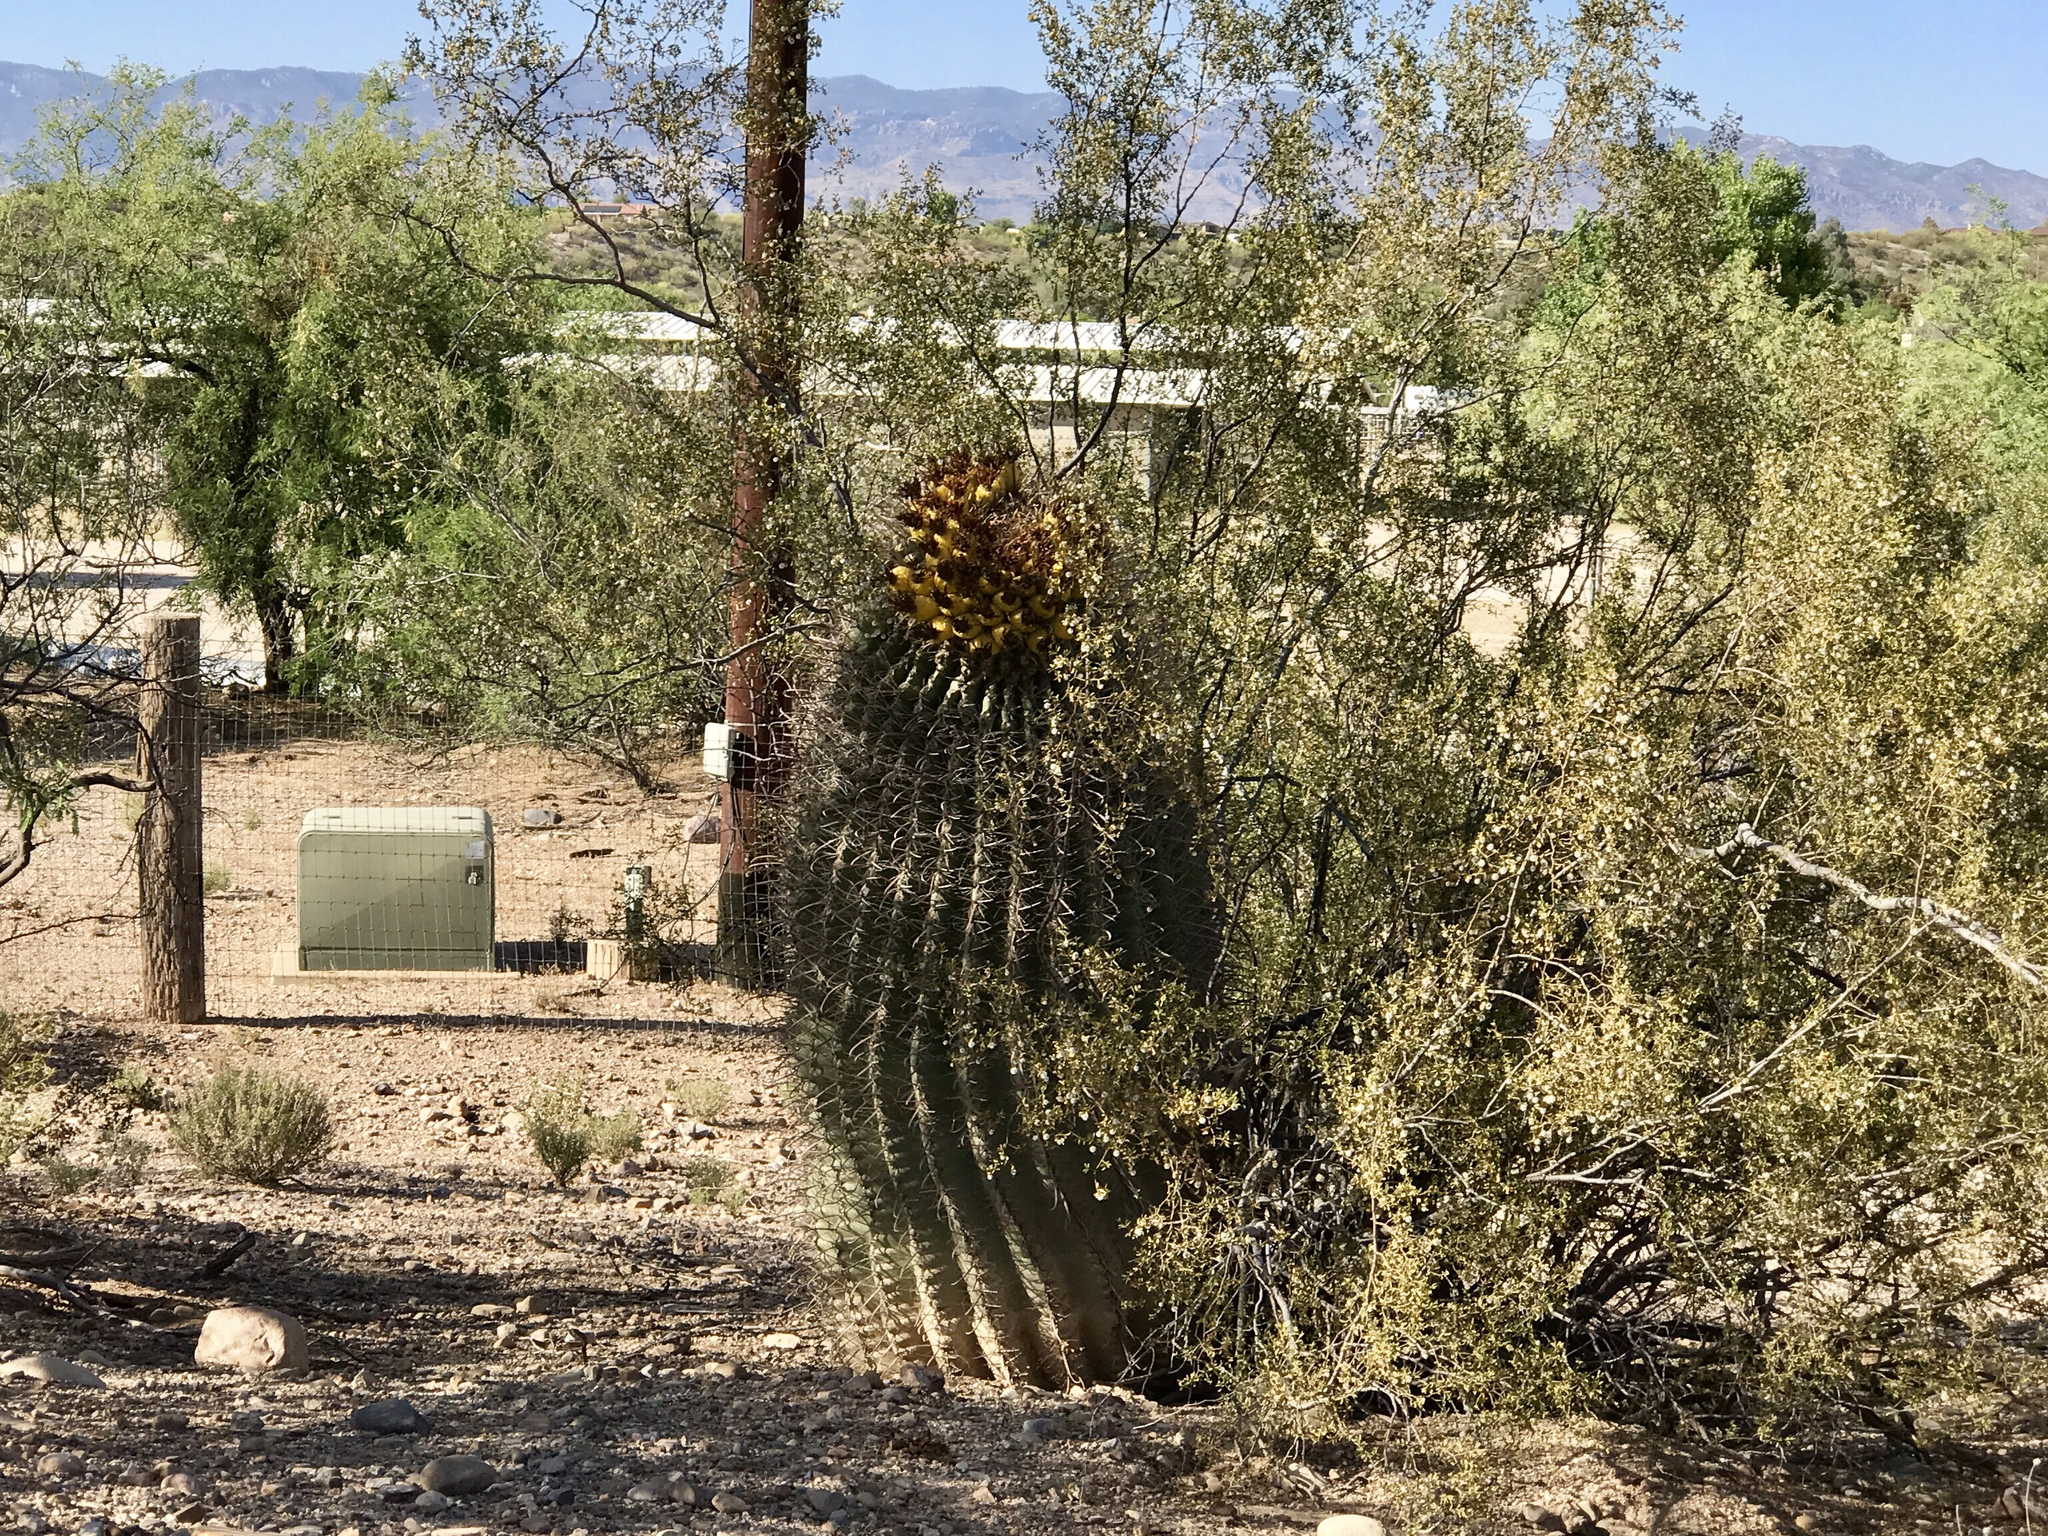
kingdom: Plantae
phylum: Tracheophyta
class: Magnoliopsida
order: Caryophyllales
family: Cactaceae
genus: Ferocactus
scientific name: Ferocactus wislizeni
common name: Candy barrel cactus
